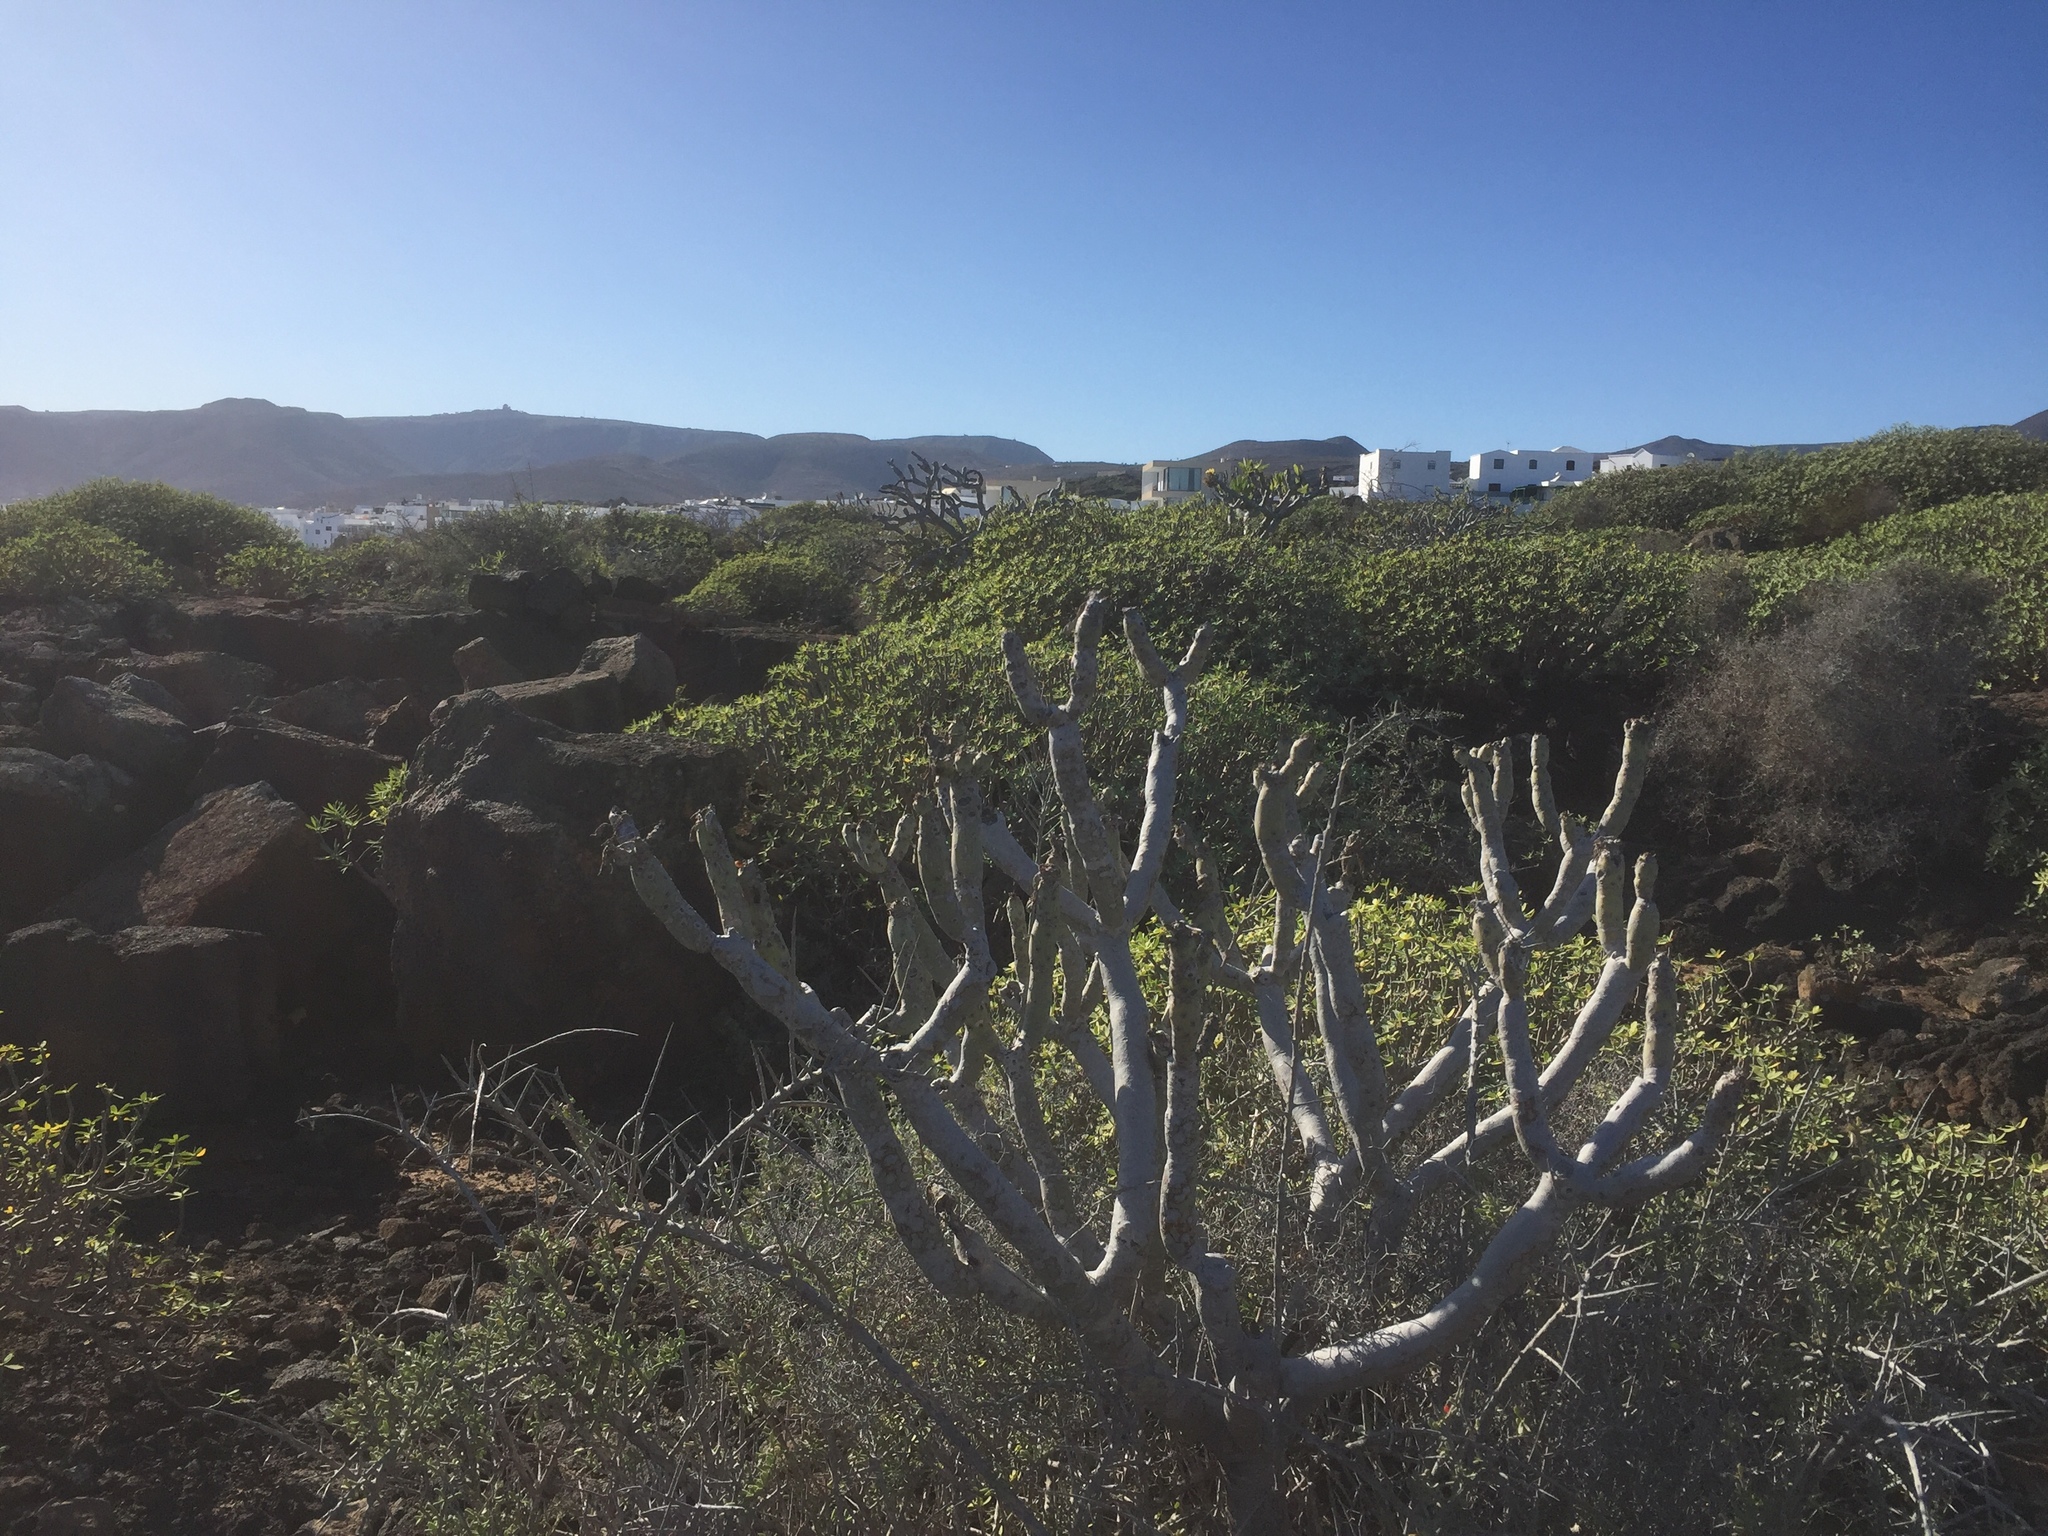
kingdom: Plantae
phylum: Tracheophyta
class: Magnoliopsida
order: Asterales
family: Asteraceae
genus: Kleinia
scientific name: Kleinia neriifolia
